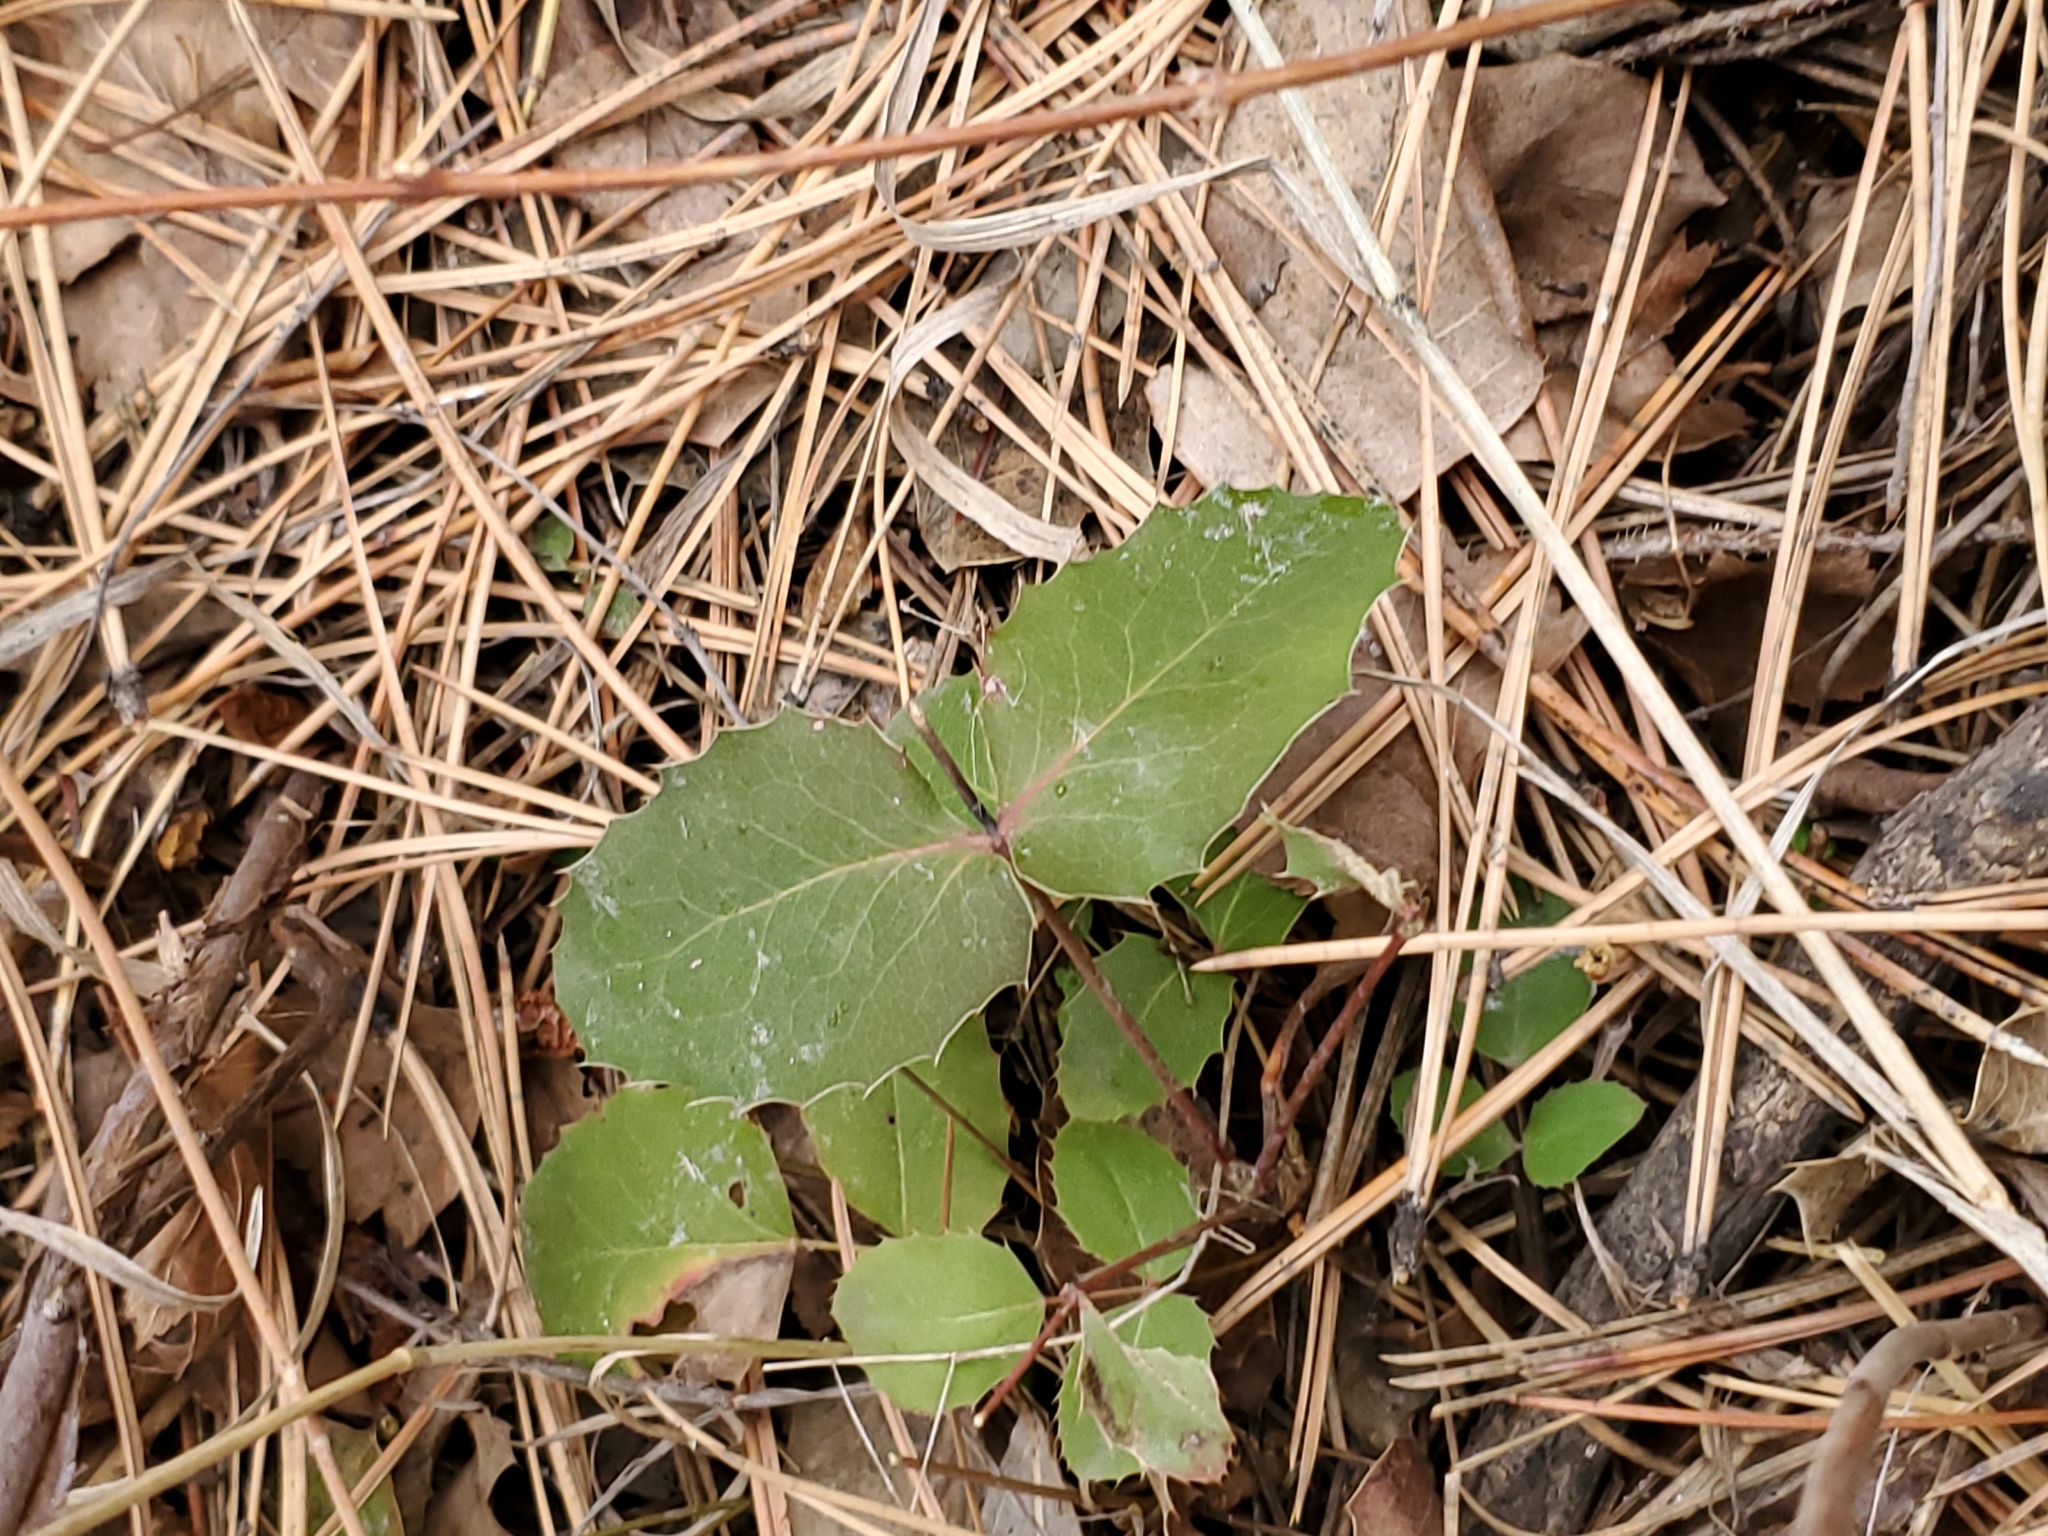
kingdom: Plantae
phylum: Tracheophyta
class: Magnoliopsida
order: Ranunculales
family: Berberidaceae
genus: Mahonia
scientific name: Mahonia repens
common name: Creeping oregon-grape
